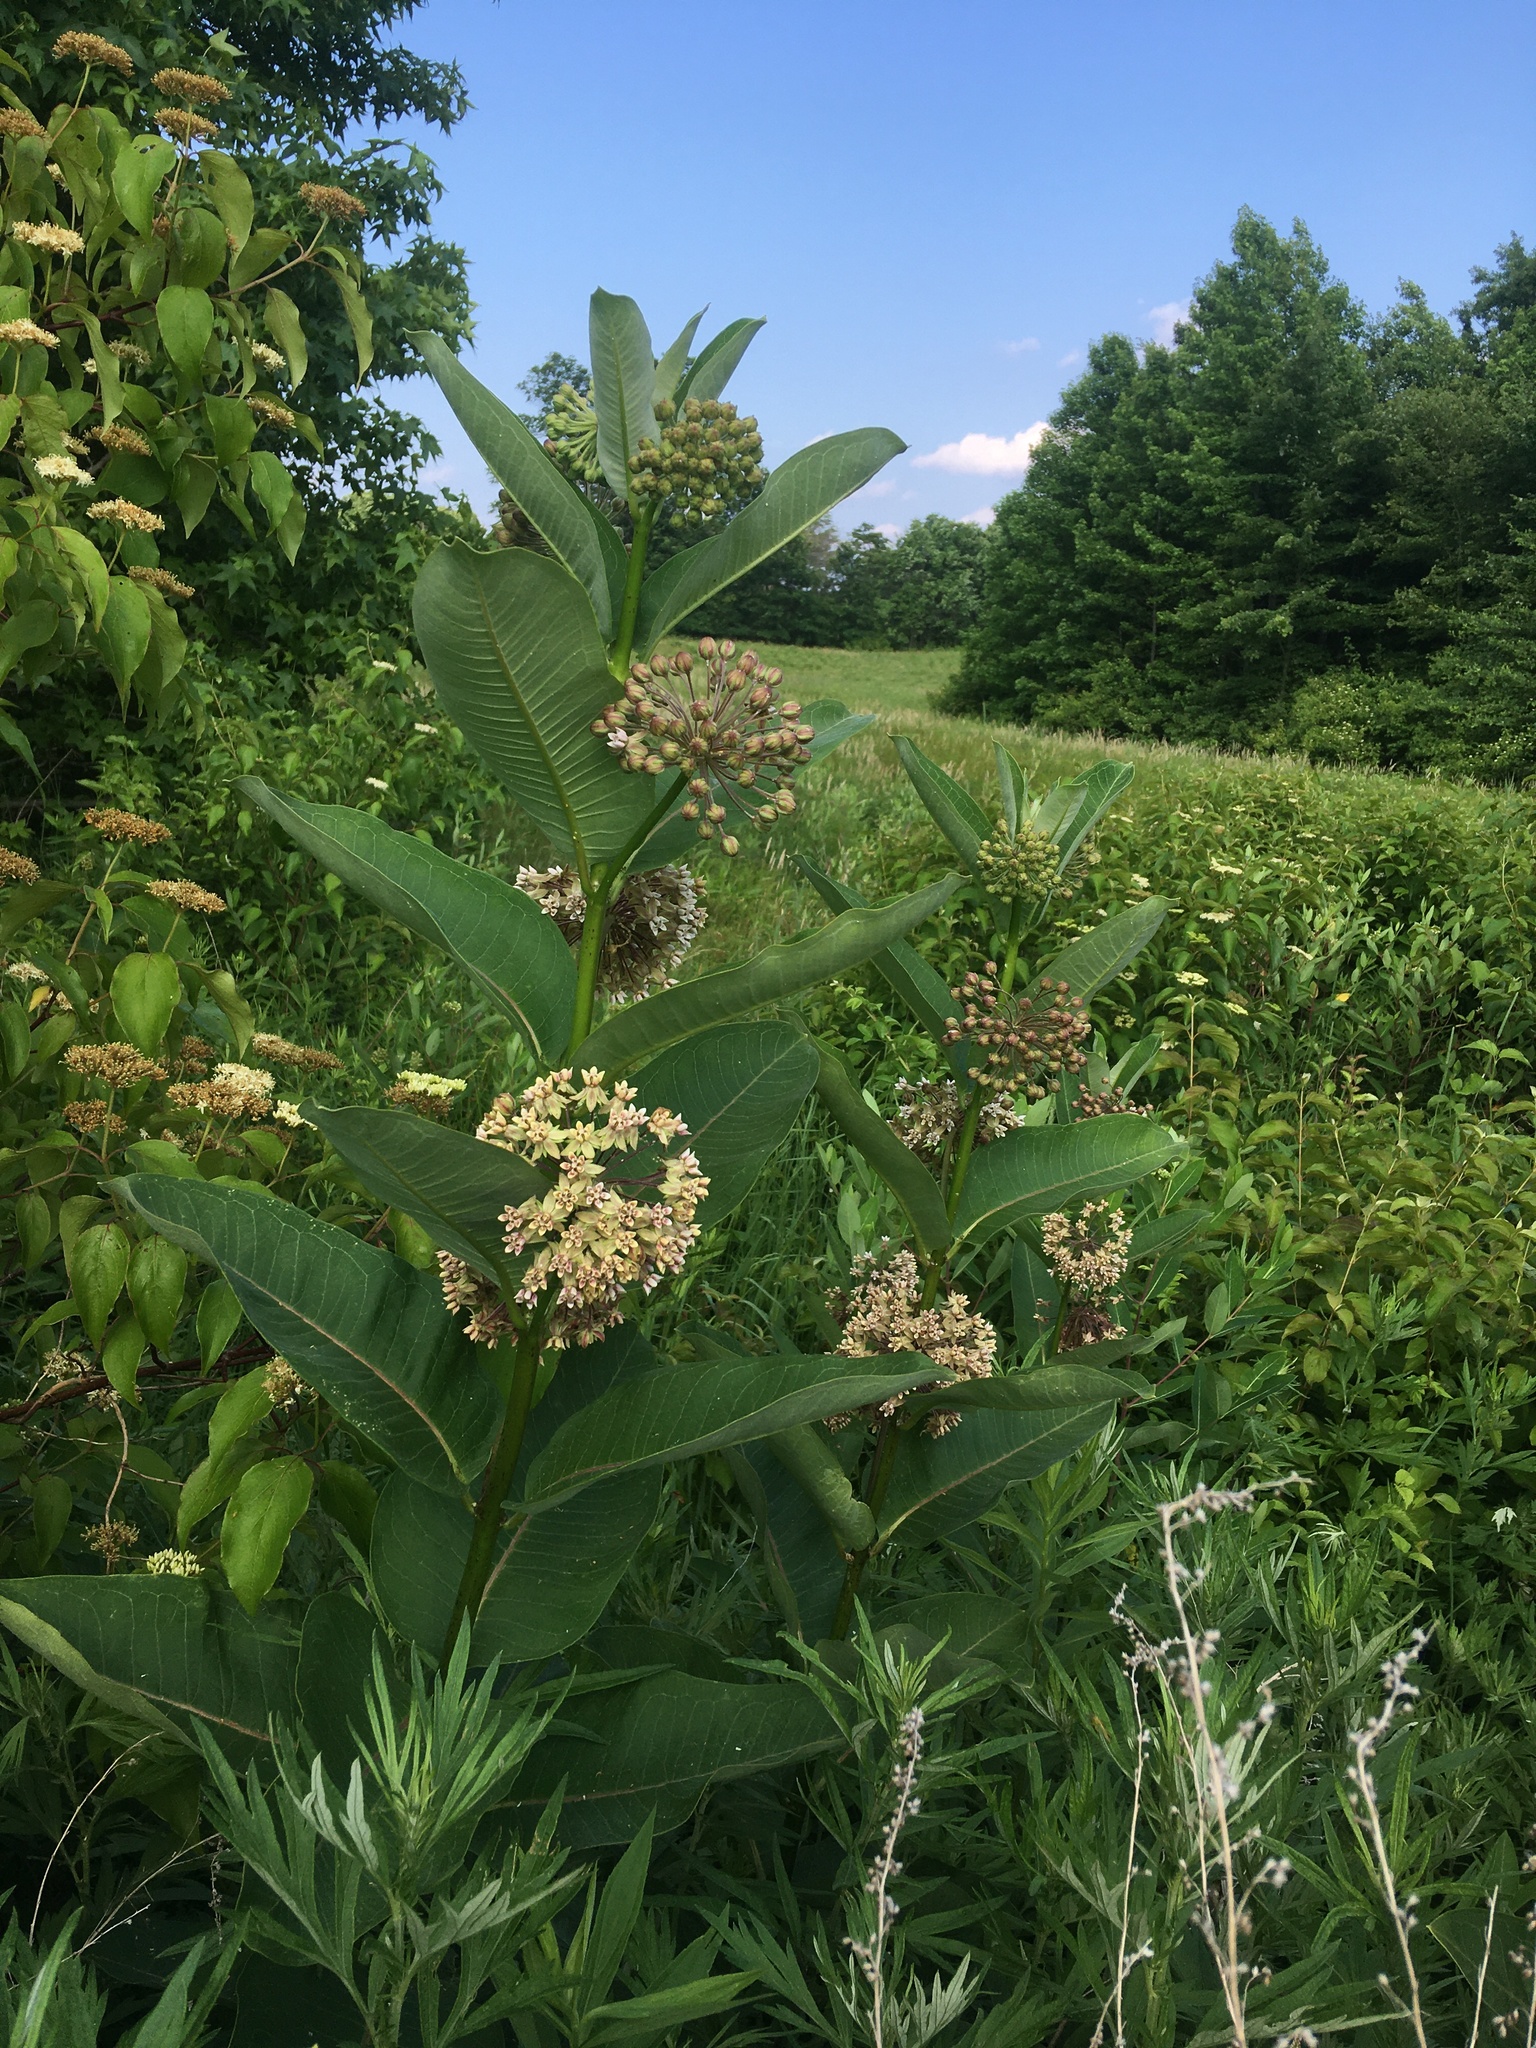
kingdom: Plantae
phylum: Tracheophyta
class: Magnoliopsida
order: Gentianales
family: Apocynaceae
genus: Asclepias
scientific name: Asclepias syriaca
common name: Common milkweed
